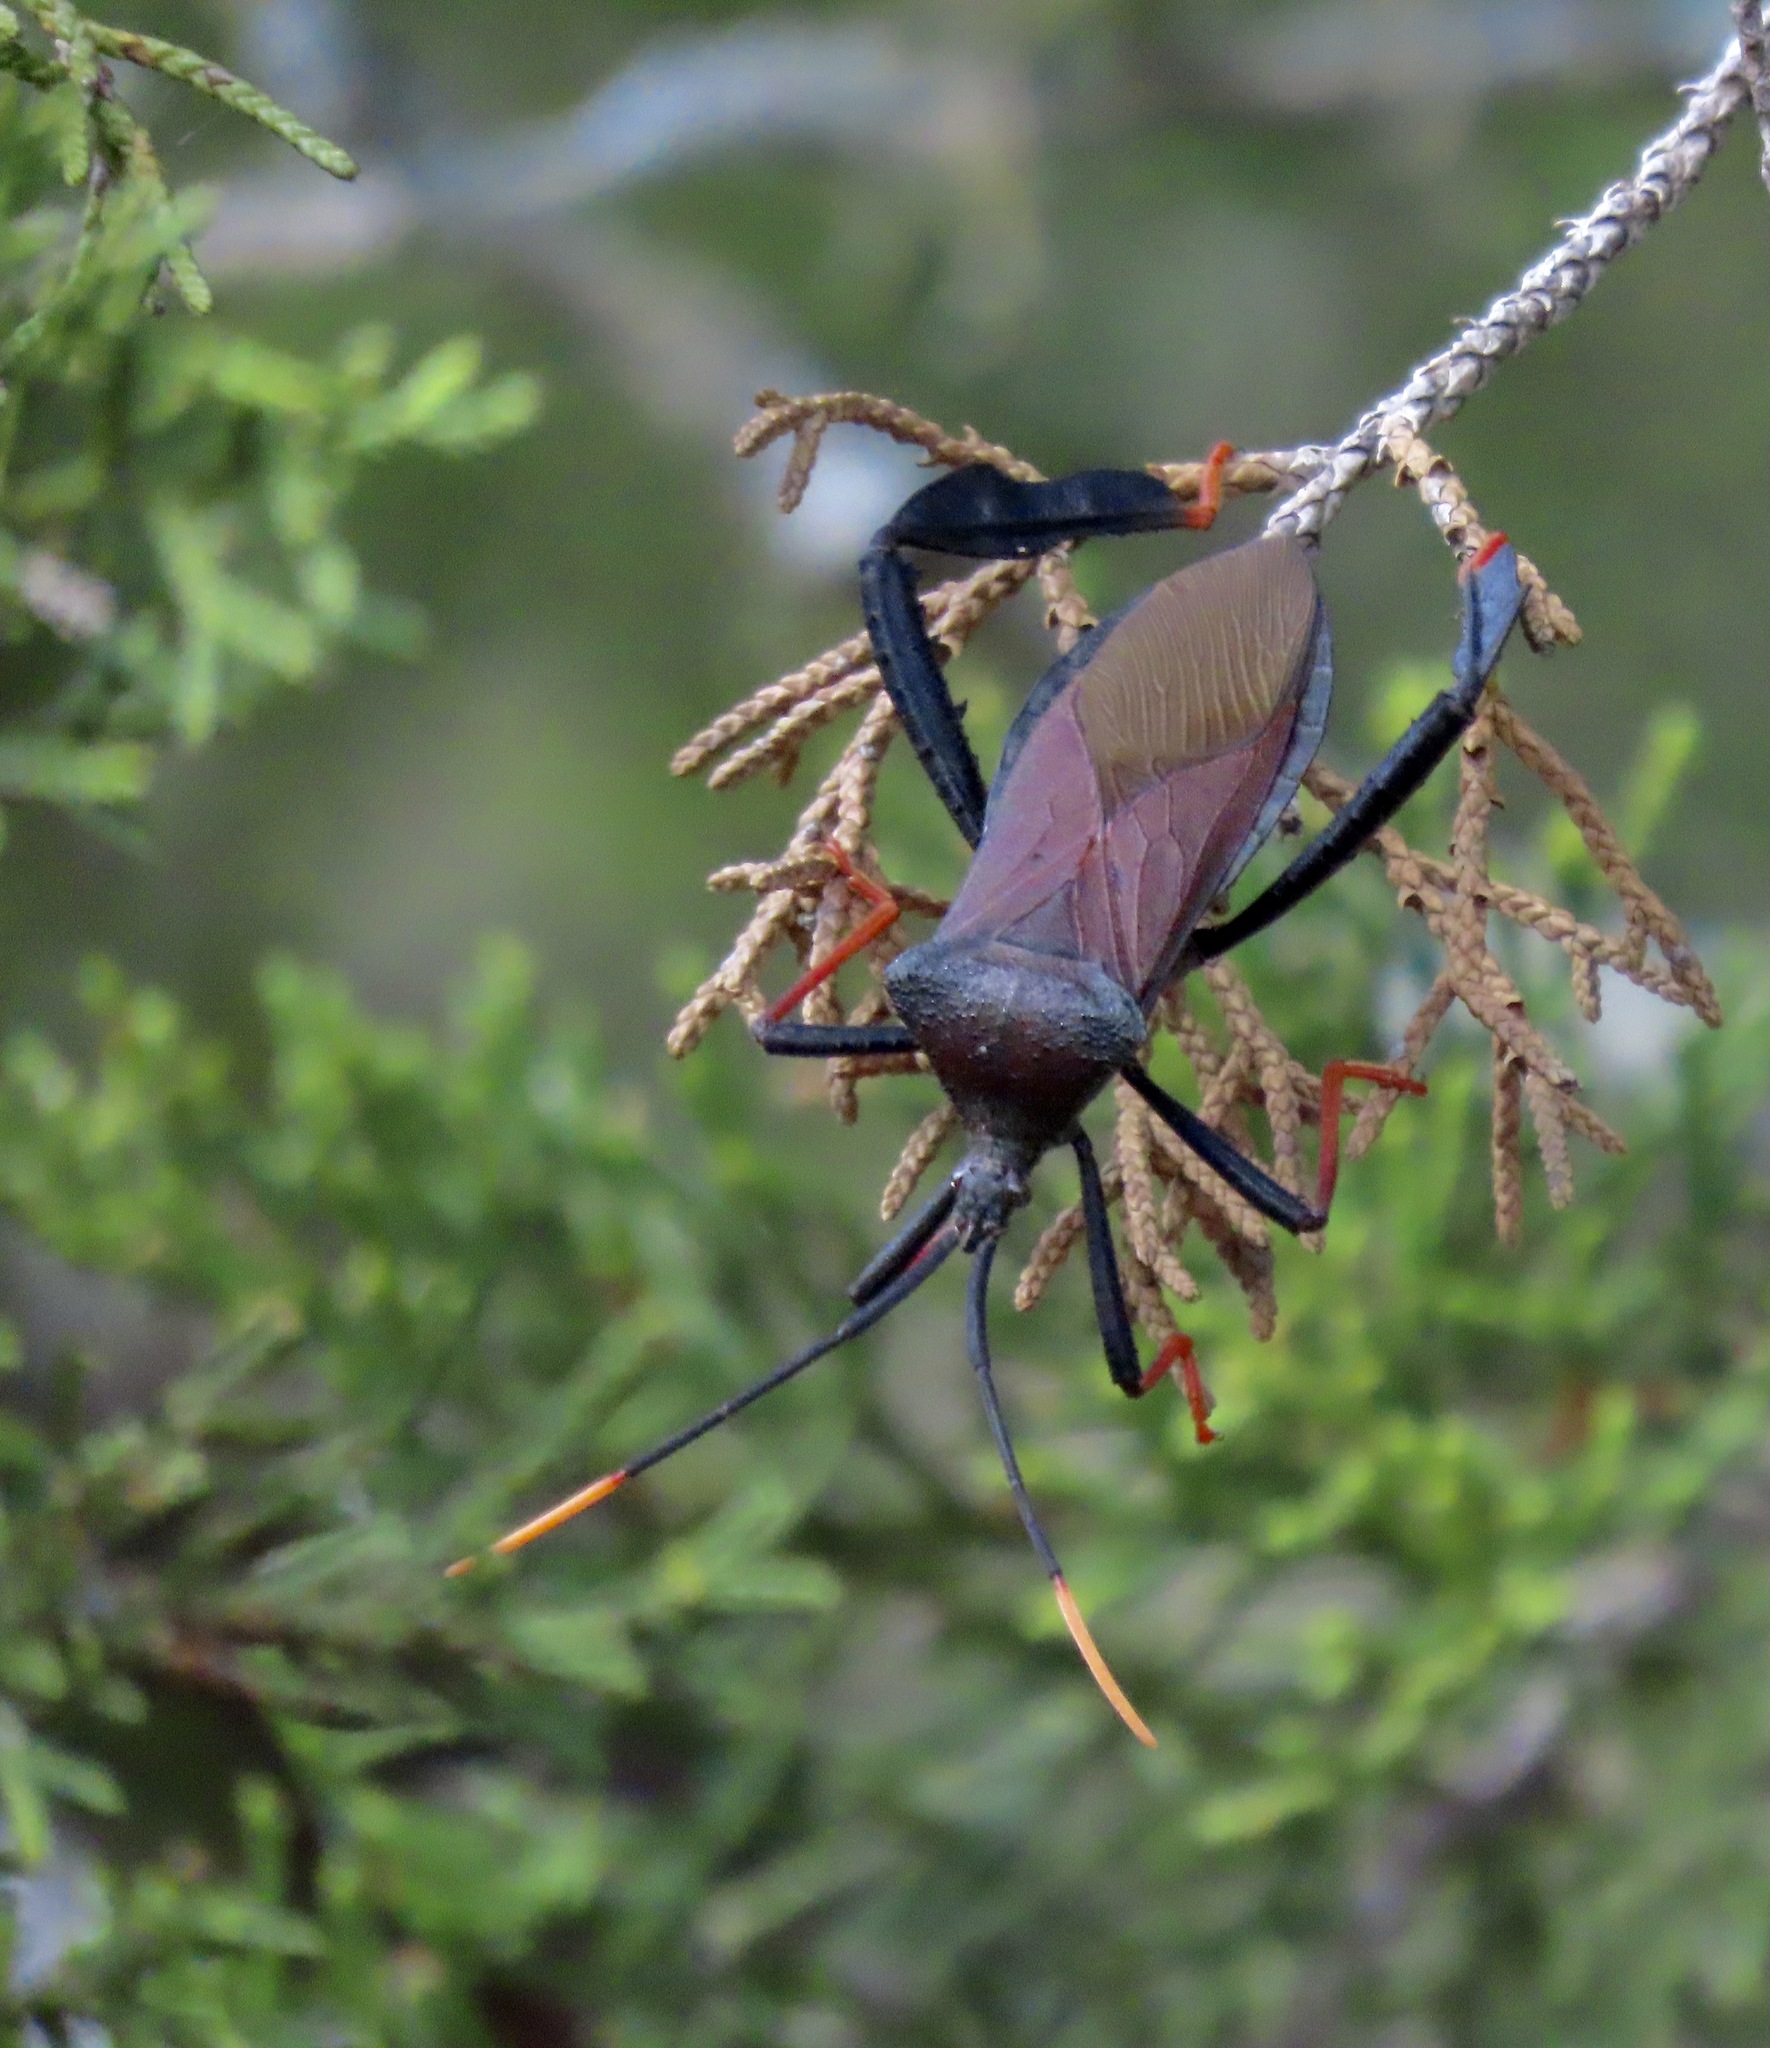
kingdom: Animalia
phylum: Arthropoda
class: Insecta
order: Hemiptera
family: Coreidae
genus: Acanthocephala
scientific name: Acanthocephala thomasi
